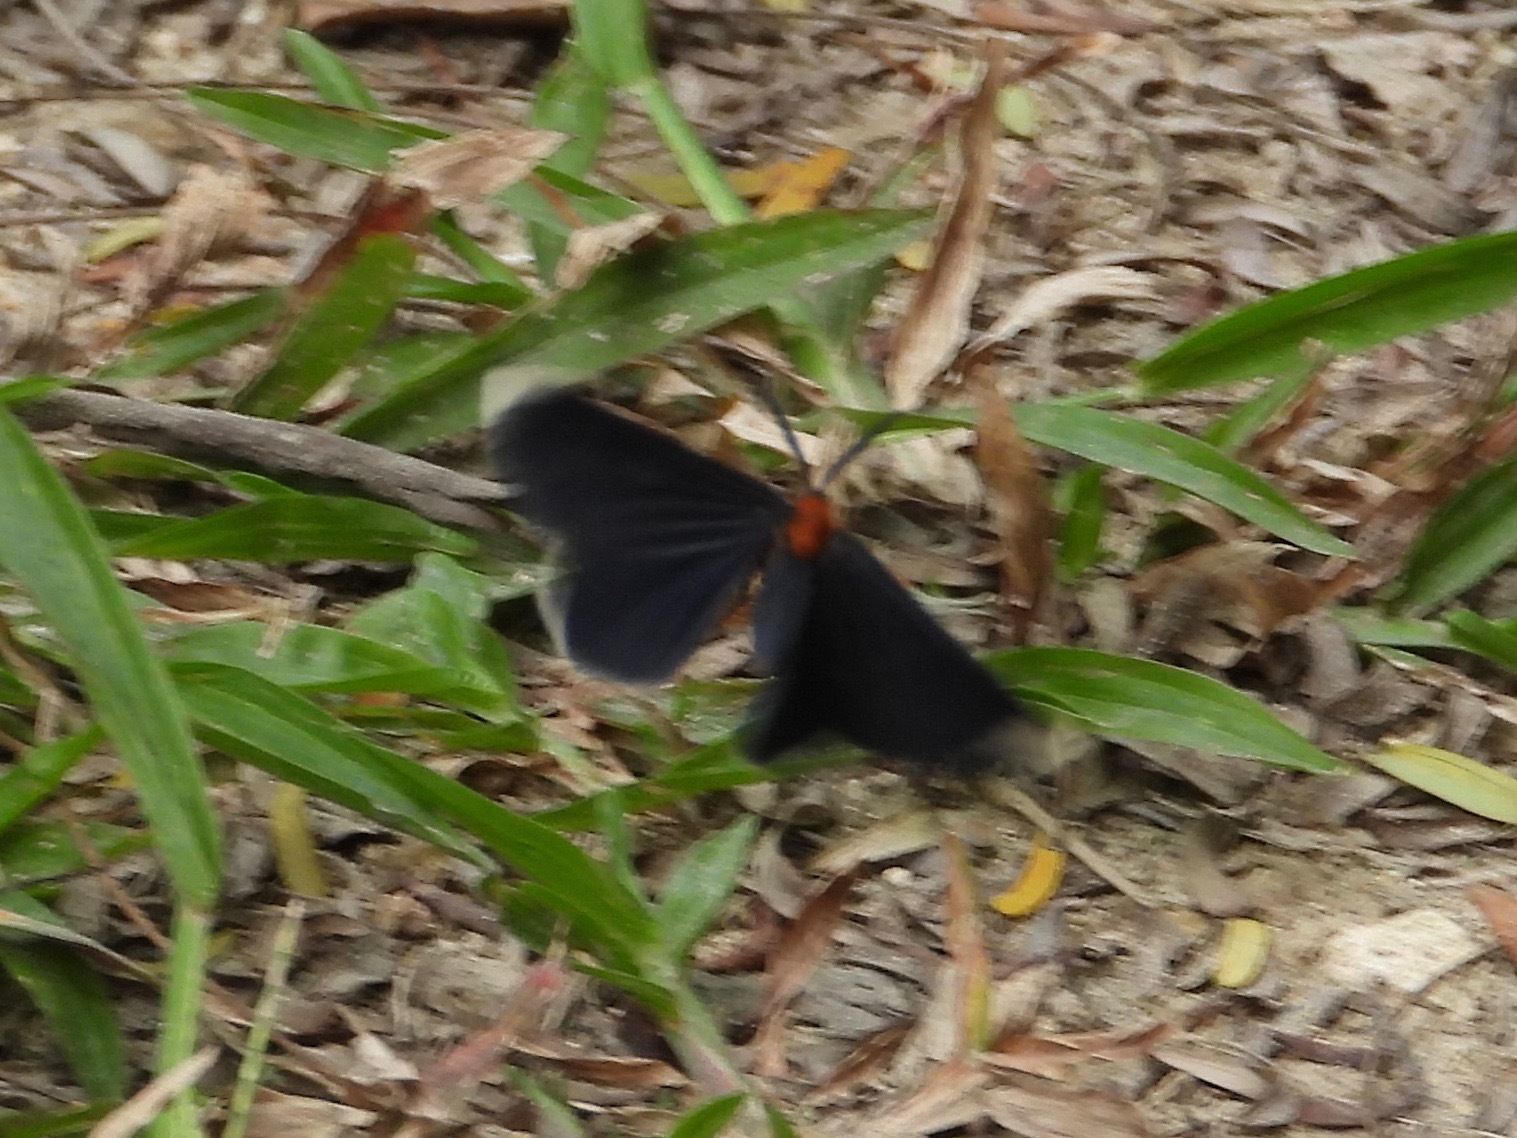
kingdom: Animalia
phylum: Arthropoda
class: Insecta
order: Lepidoptera
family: Geometridae
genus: Melanchroia
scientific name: Melanchroia chephise
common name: White-tipped black
